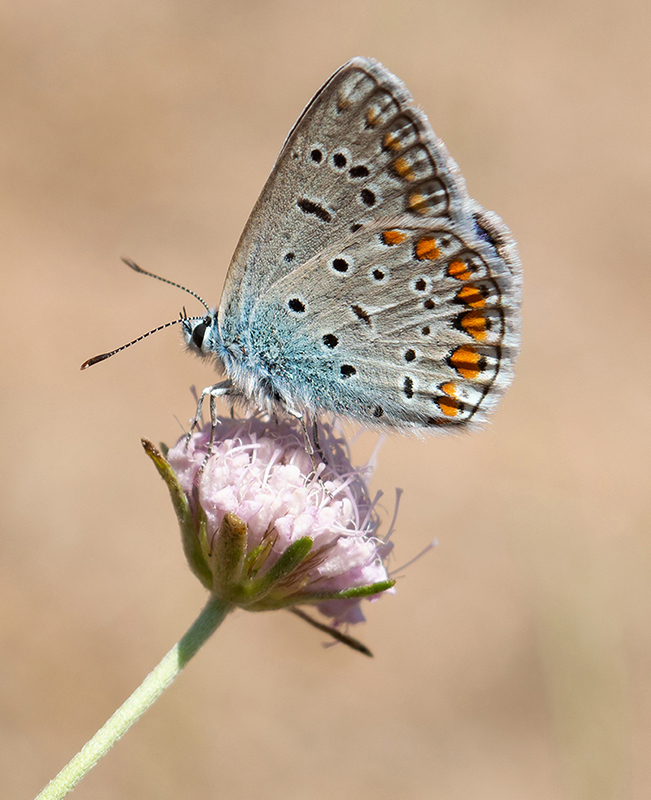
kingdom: Animalia
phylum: Arthropoda
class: Insecta
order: Lepidoptera
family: Lycaenidae
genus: Polyommatus
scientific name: Polyommatus icarus
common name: Common blue
